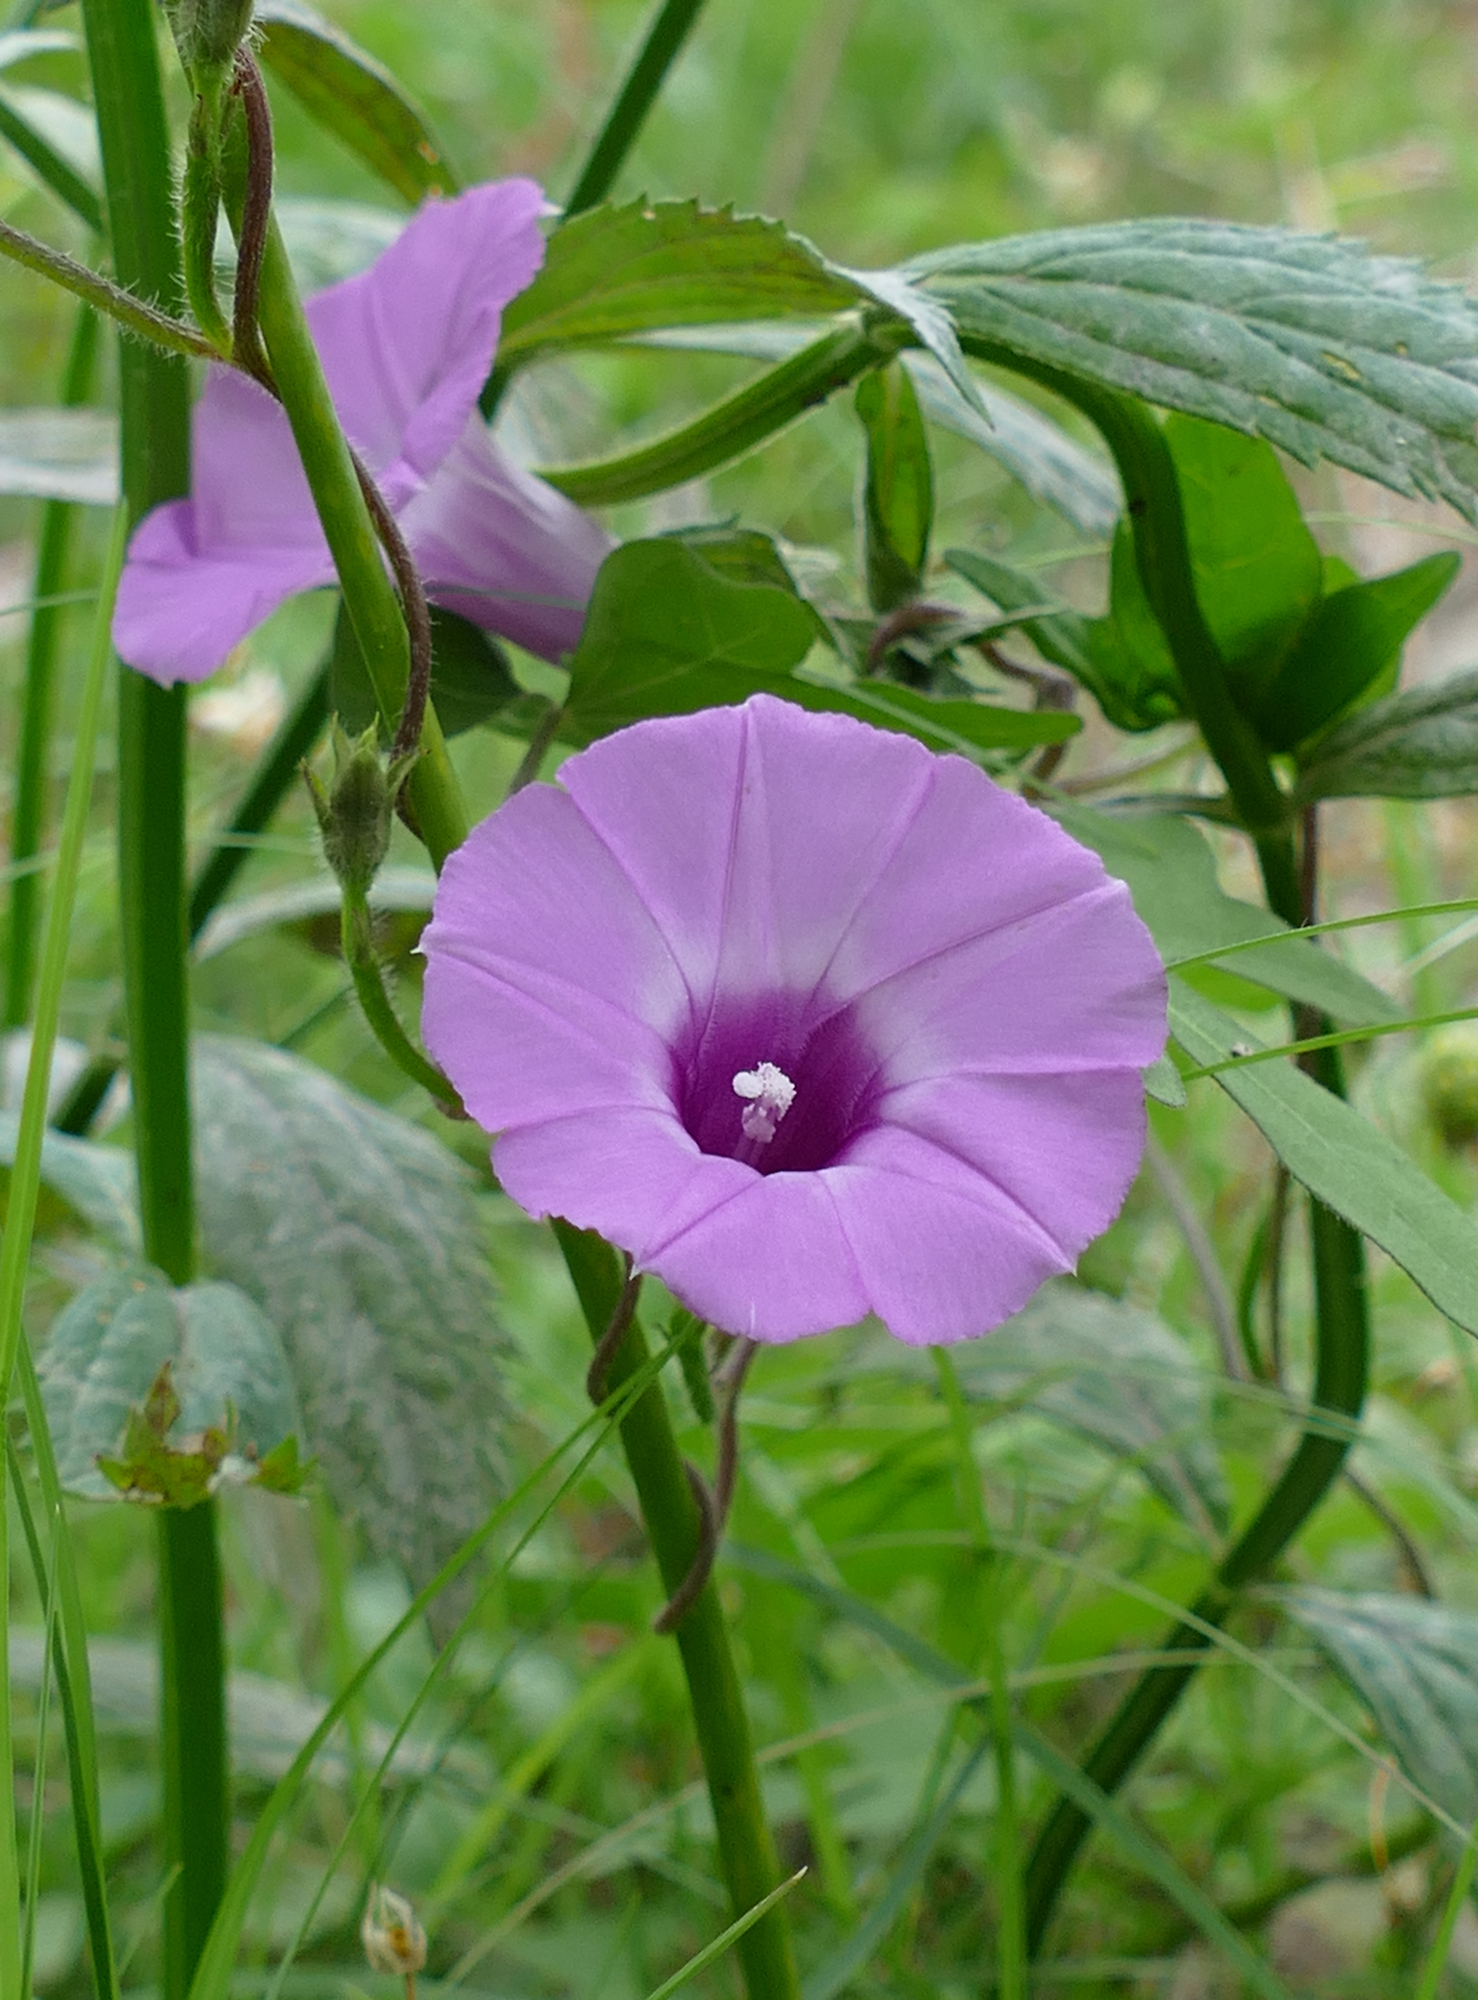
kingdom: Plantae
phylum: Tracheophyta
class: Magnoliopsida
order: Solanales
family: Convolvulaceae
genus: Ipomoea
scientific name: Ipomoea cordatotriloba
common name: Cotton morning glory
